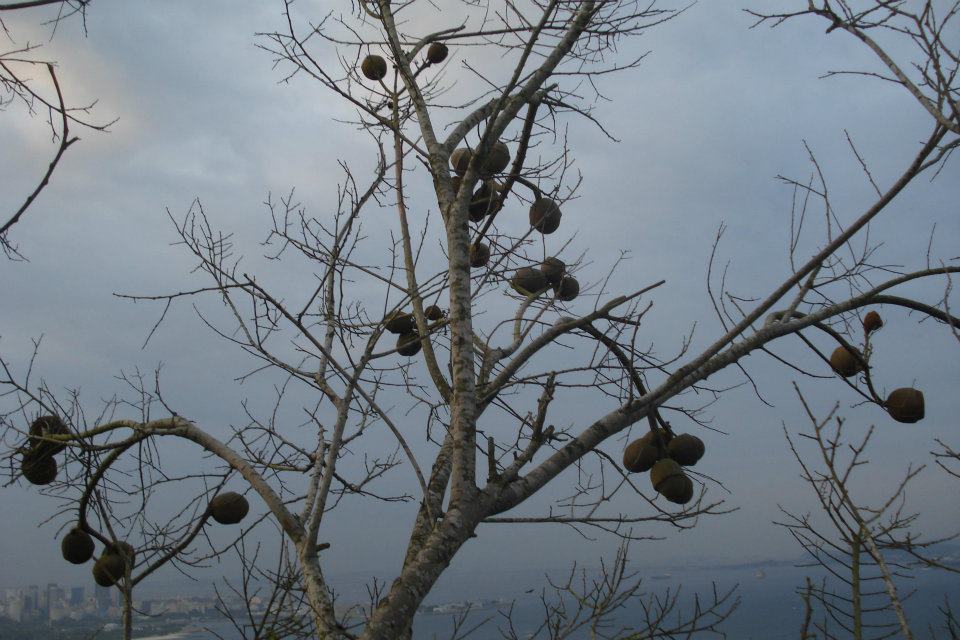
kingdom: Plantae
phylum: Tracheophyta
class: Magnoliopsida
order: Ericales
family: Lecythidaceae
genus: Lecythis
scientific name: Lecythis pisonis
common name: Paradise-nut
